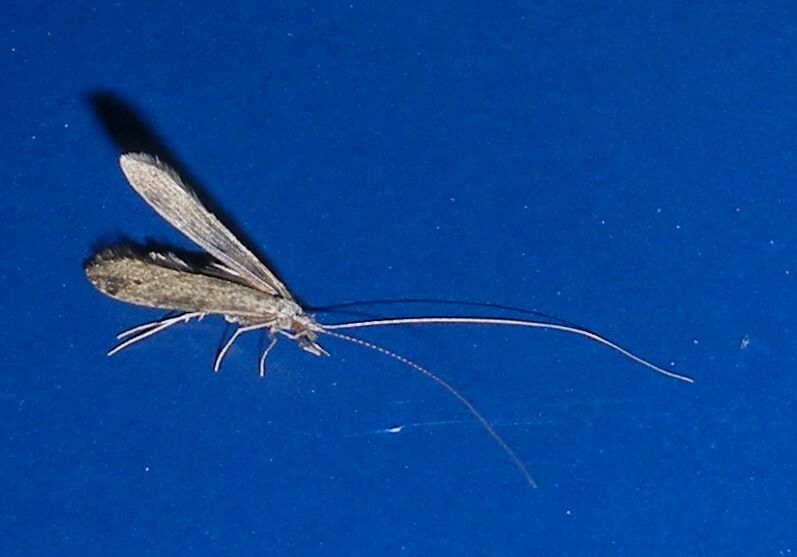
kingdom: Animalia
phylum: Arthropoda
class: Insecta
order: Trichoptera
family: Leptoceridae
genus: Leptocerus
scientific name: Leptocerus tineiformis
